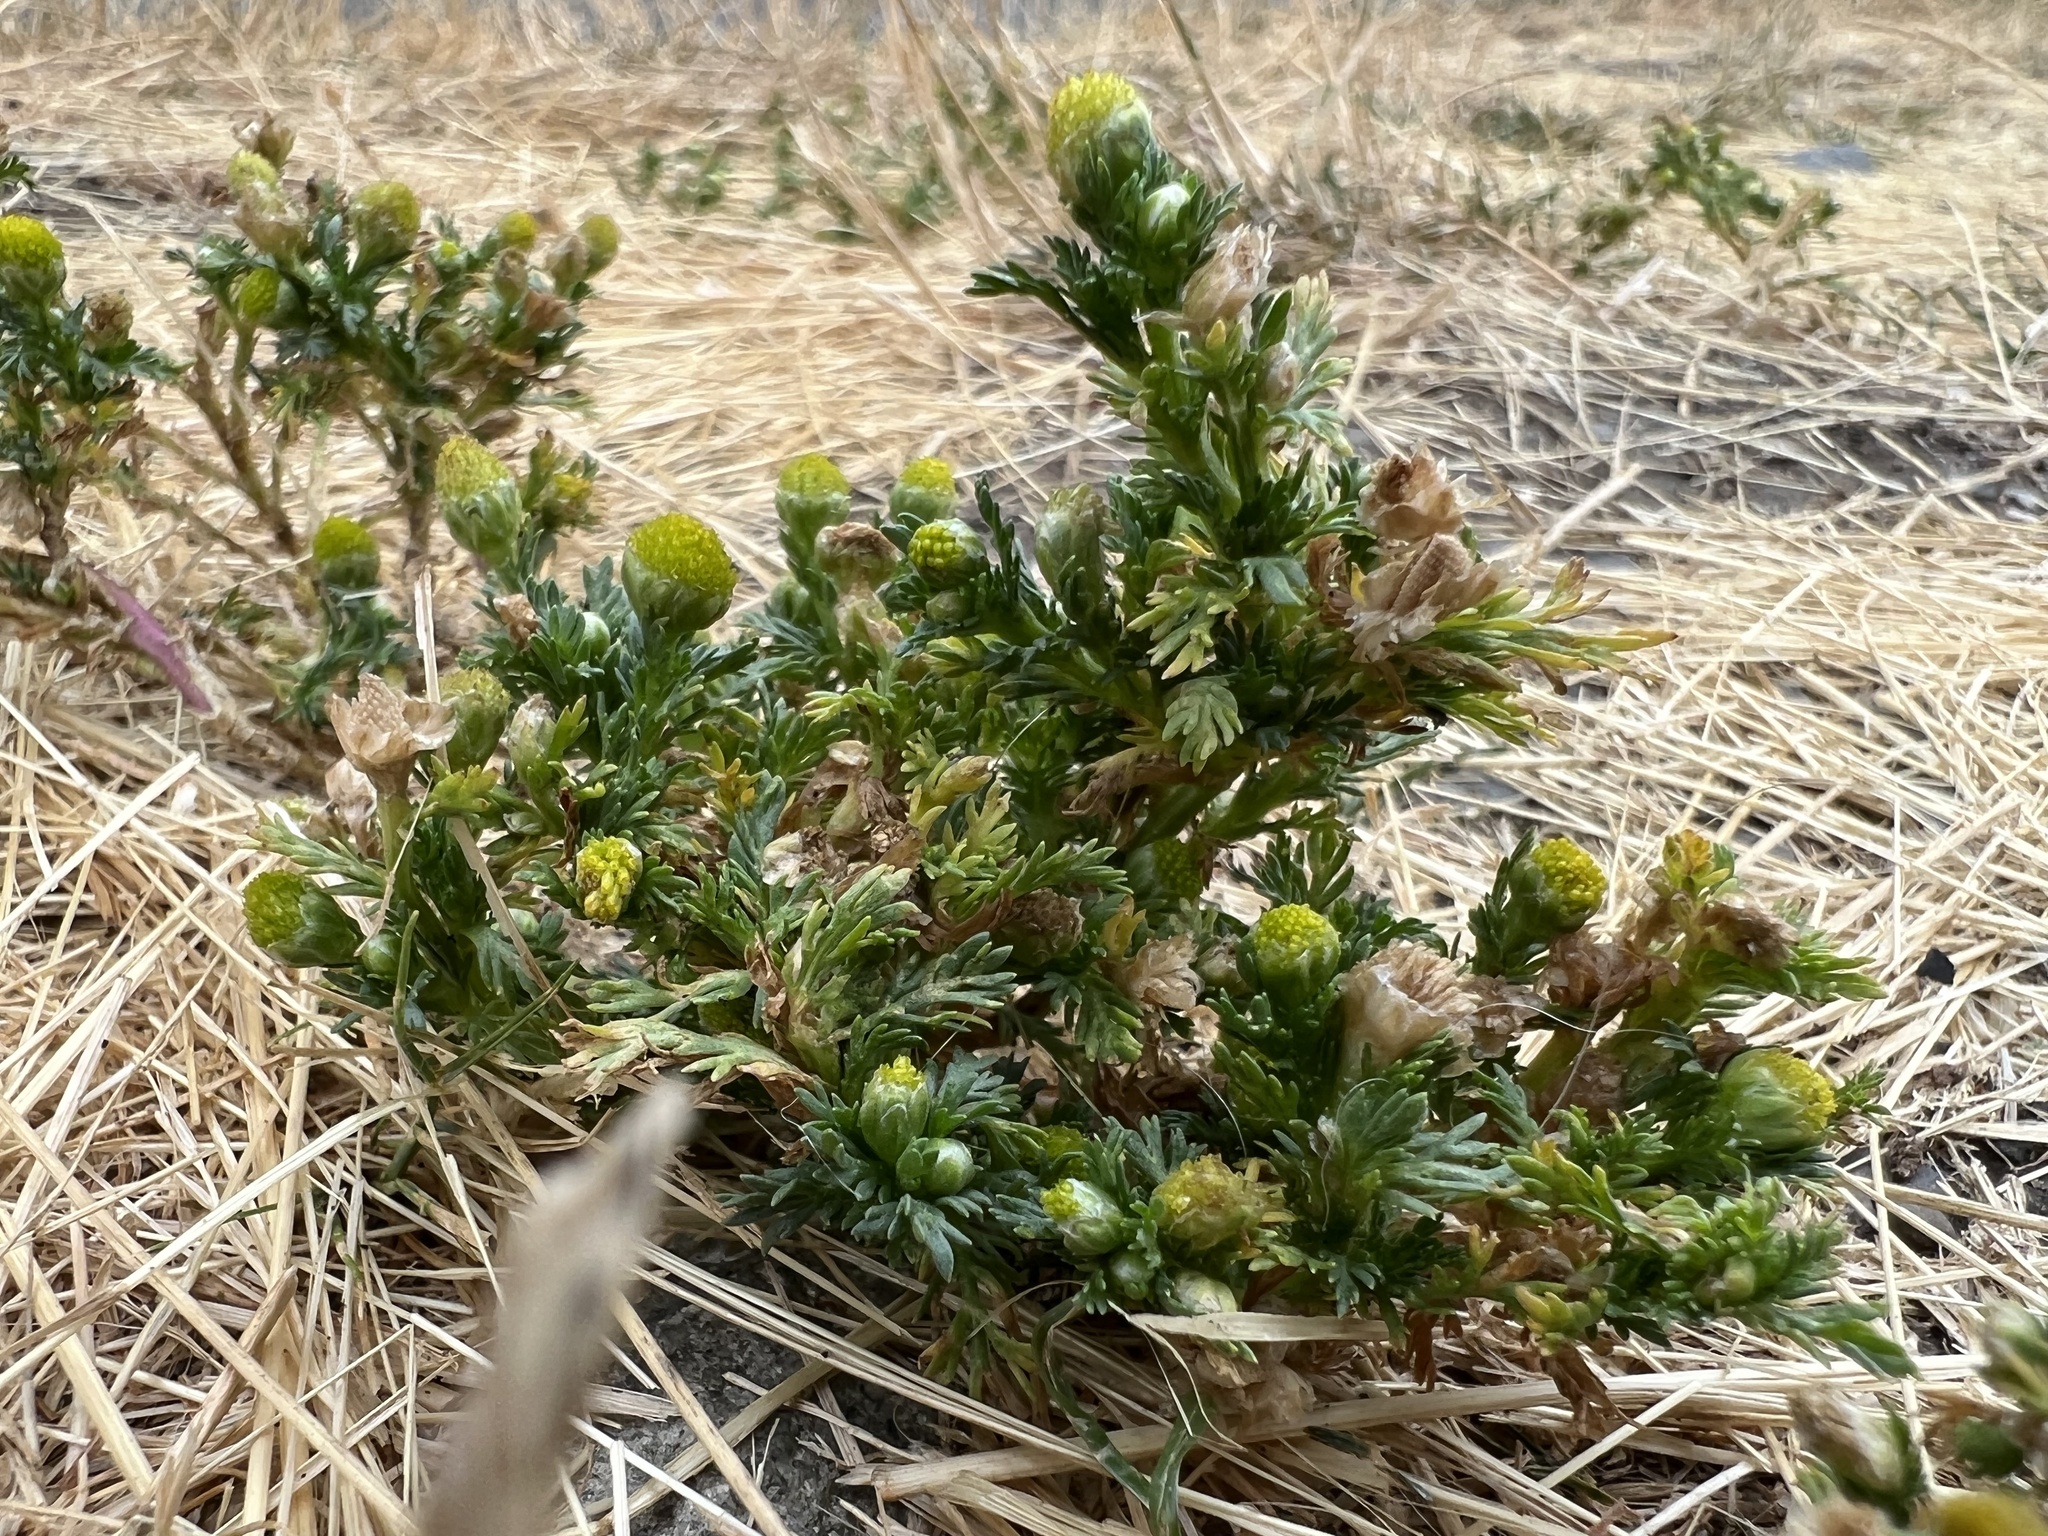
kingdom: Plantae
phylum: Tracheophyta
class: Magnoliopsida
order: Asterales
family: Asteraceae
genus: Matricaria
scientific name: Matricaria discoidea
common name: Disc mayweed
